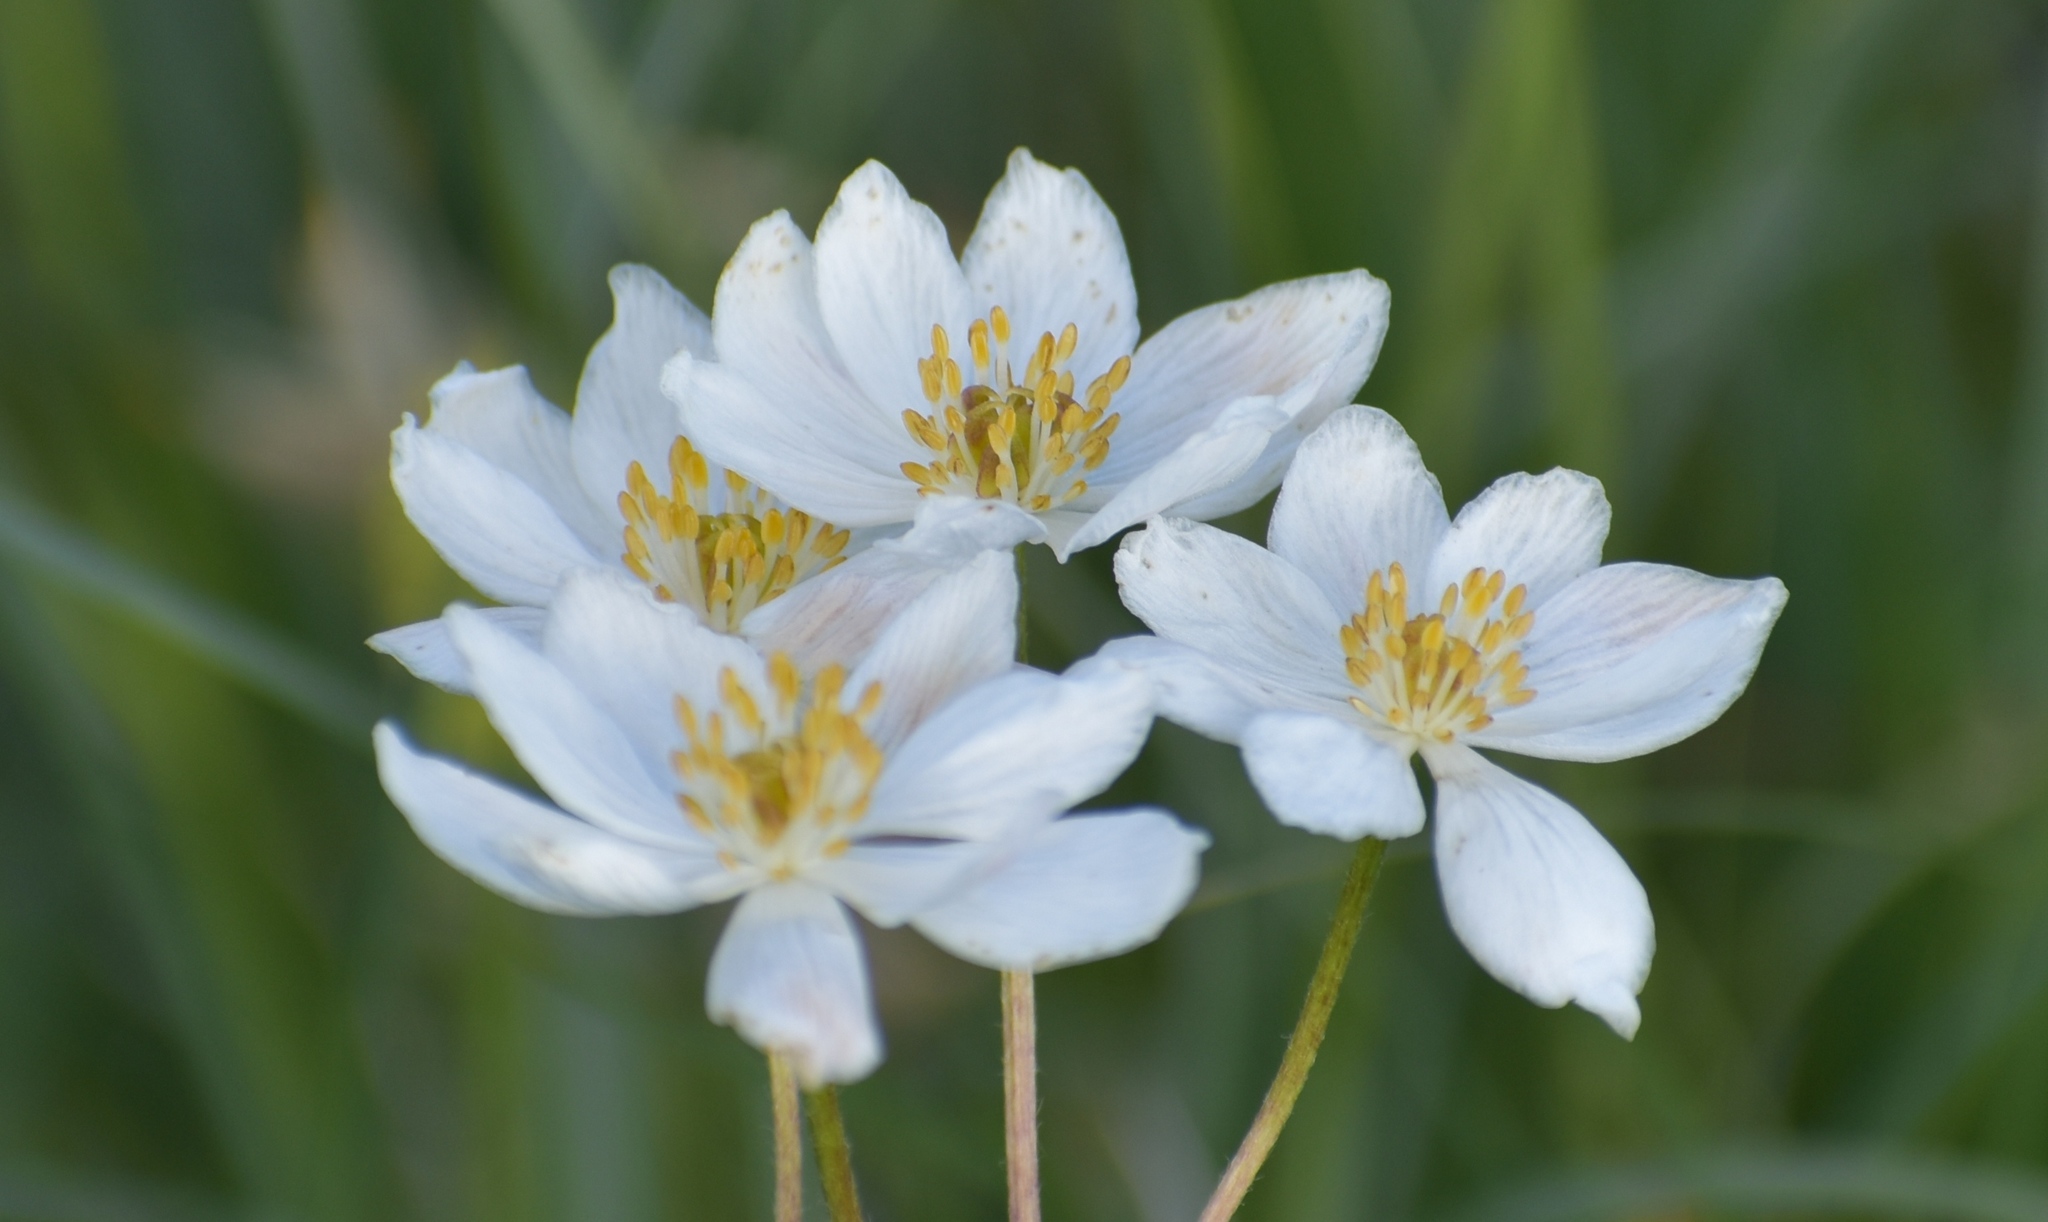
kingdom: Plantae
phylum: Tracheophyta
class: Magnoliopsida
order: Ranunculales
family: Ranunculaceae
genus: Anemonastrum
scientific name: Anemonastrum narcissiflorum
